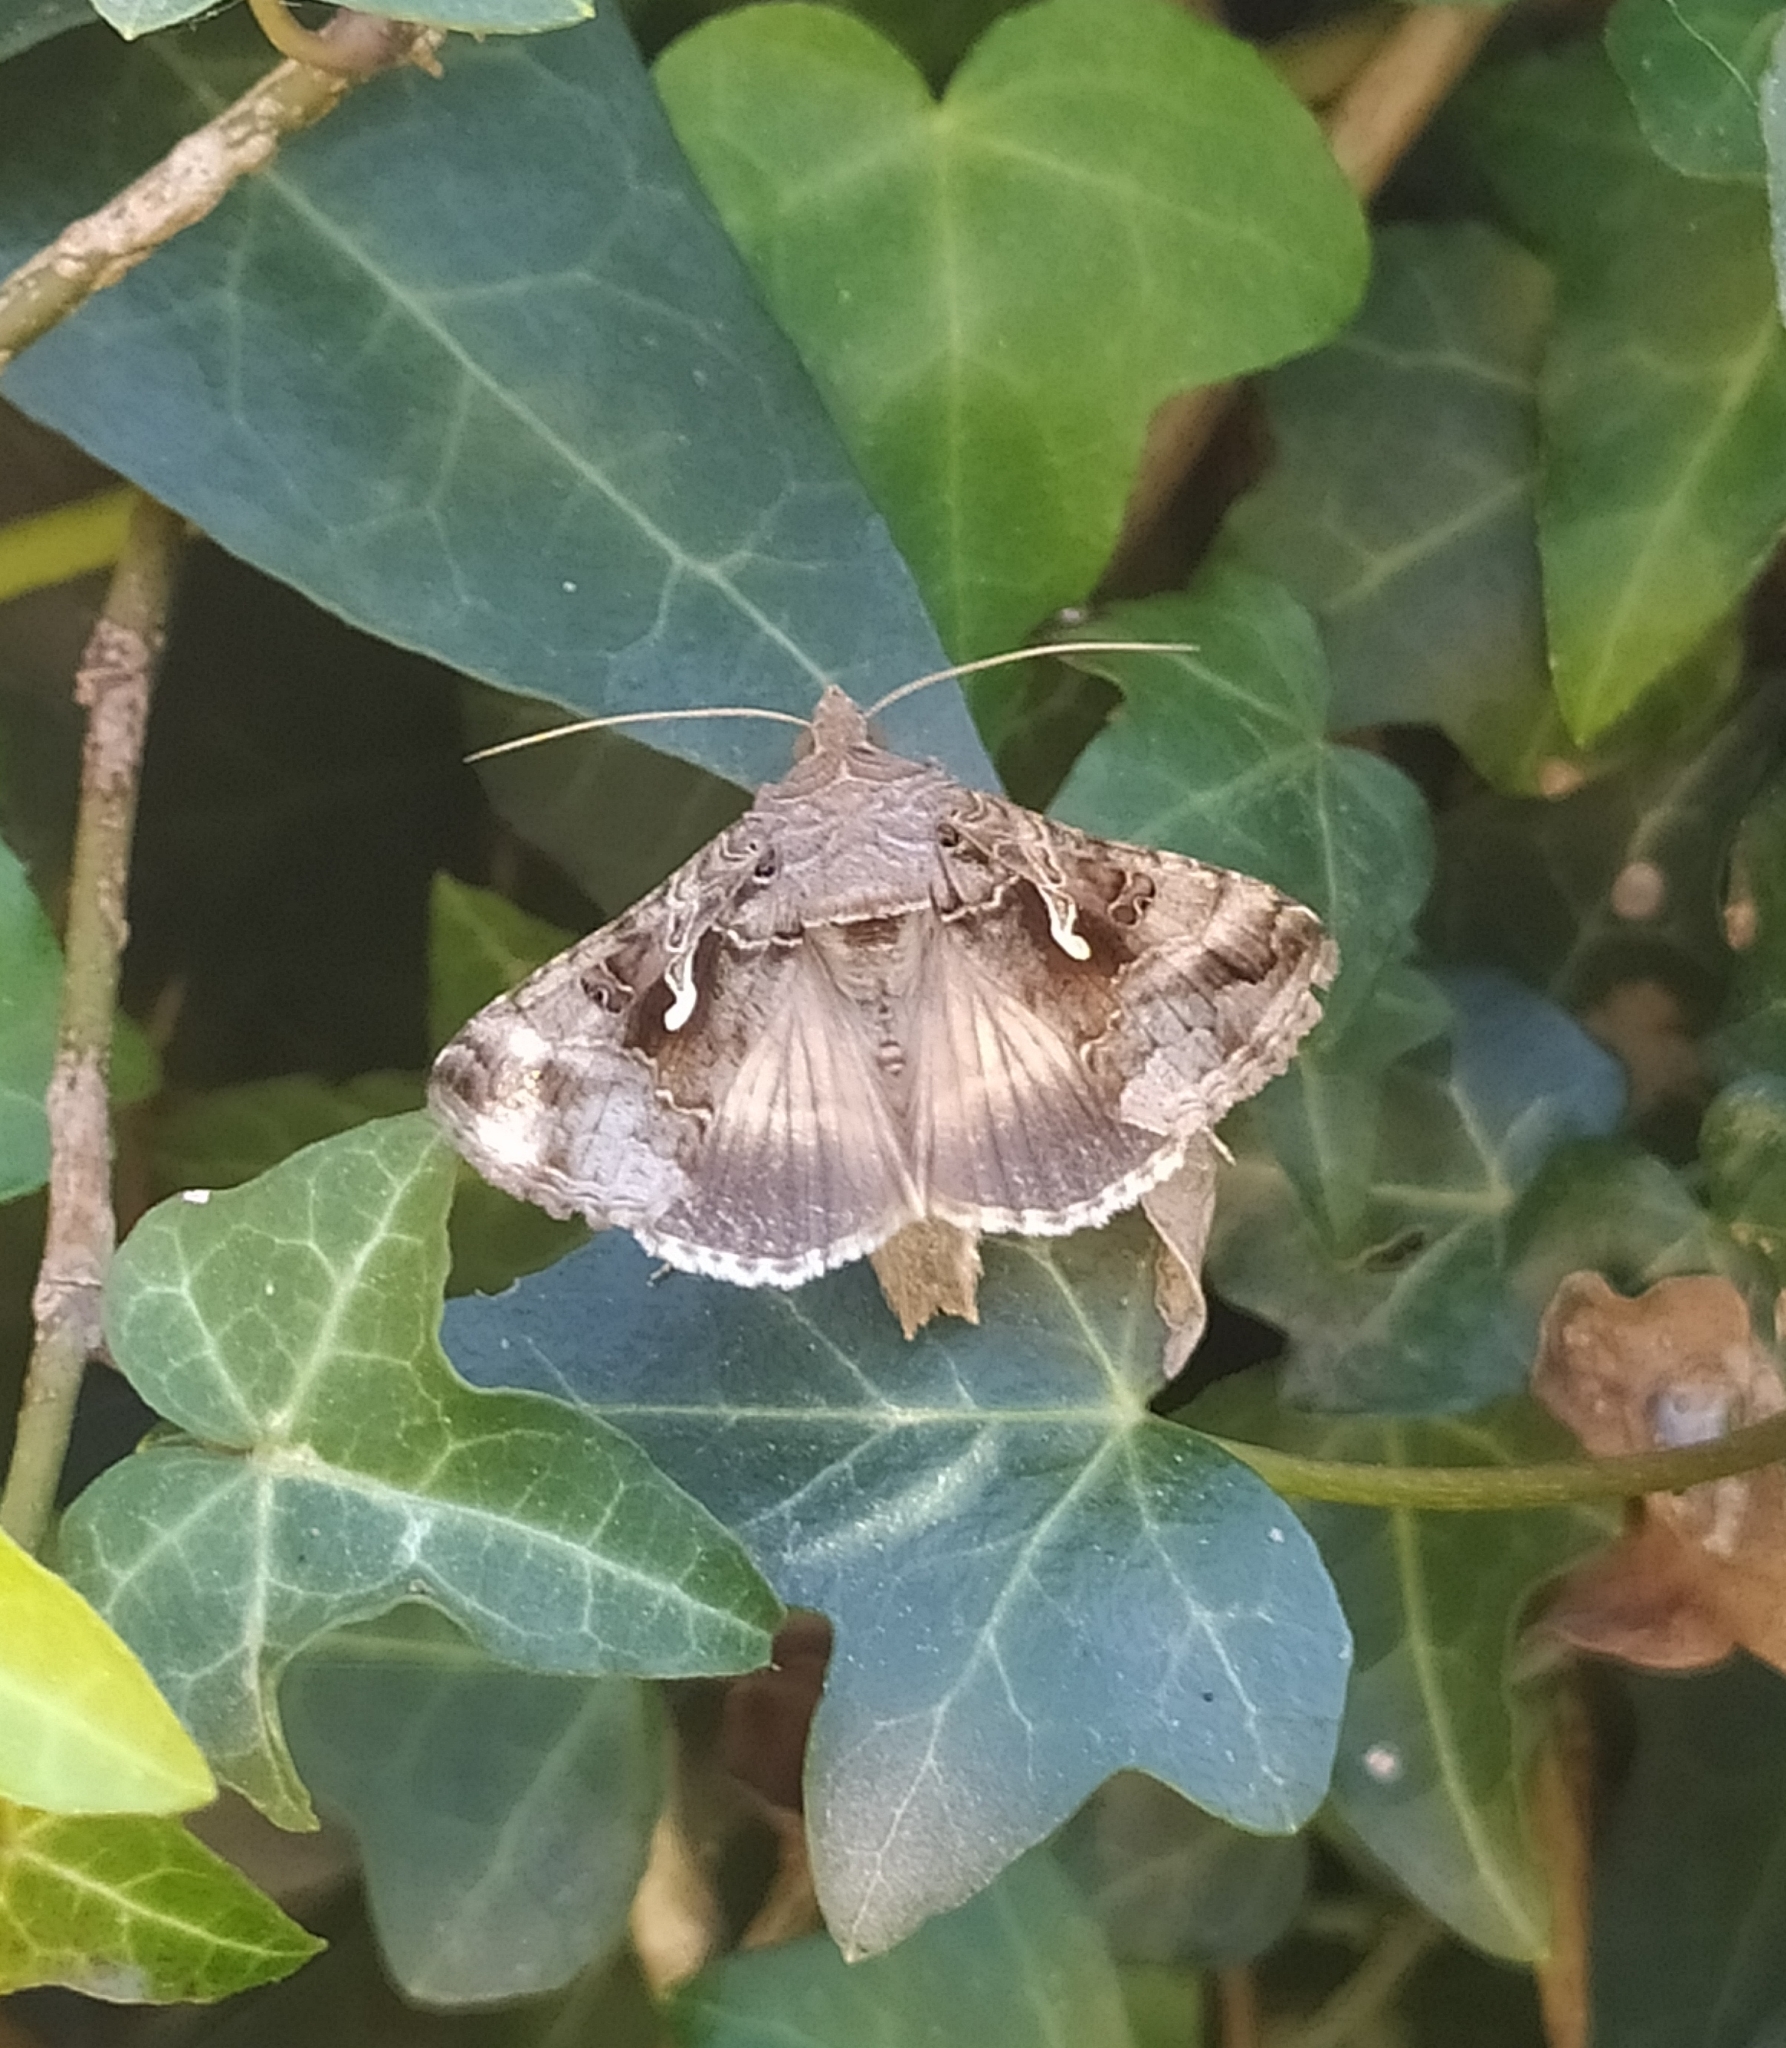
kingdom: Animalia
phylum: Arthropoda
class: Insecta
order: Lepidoptera
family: Noctuidae
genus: Autographa
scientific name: Autographa gamma
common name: Silver y
